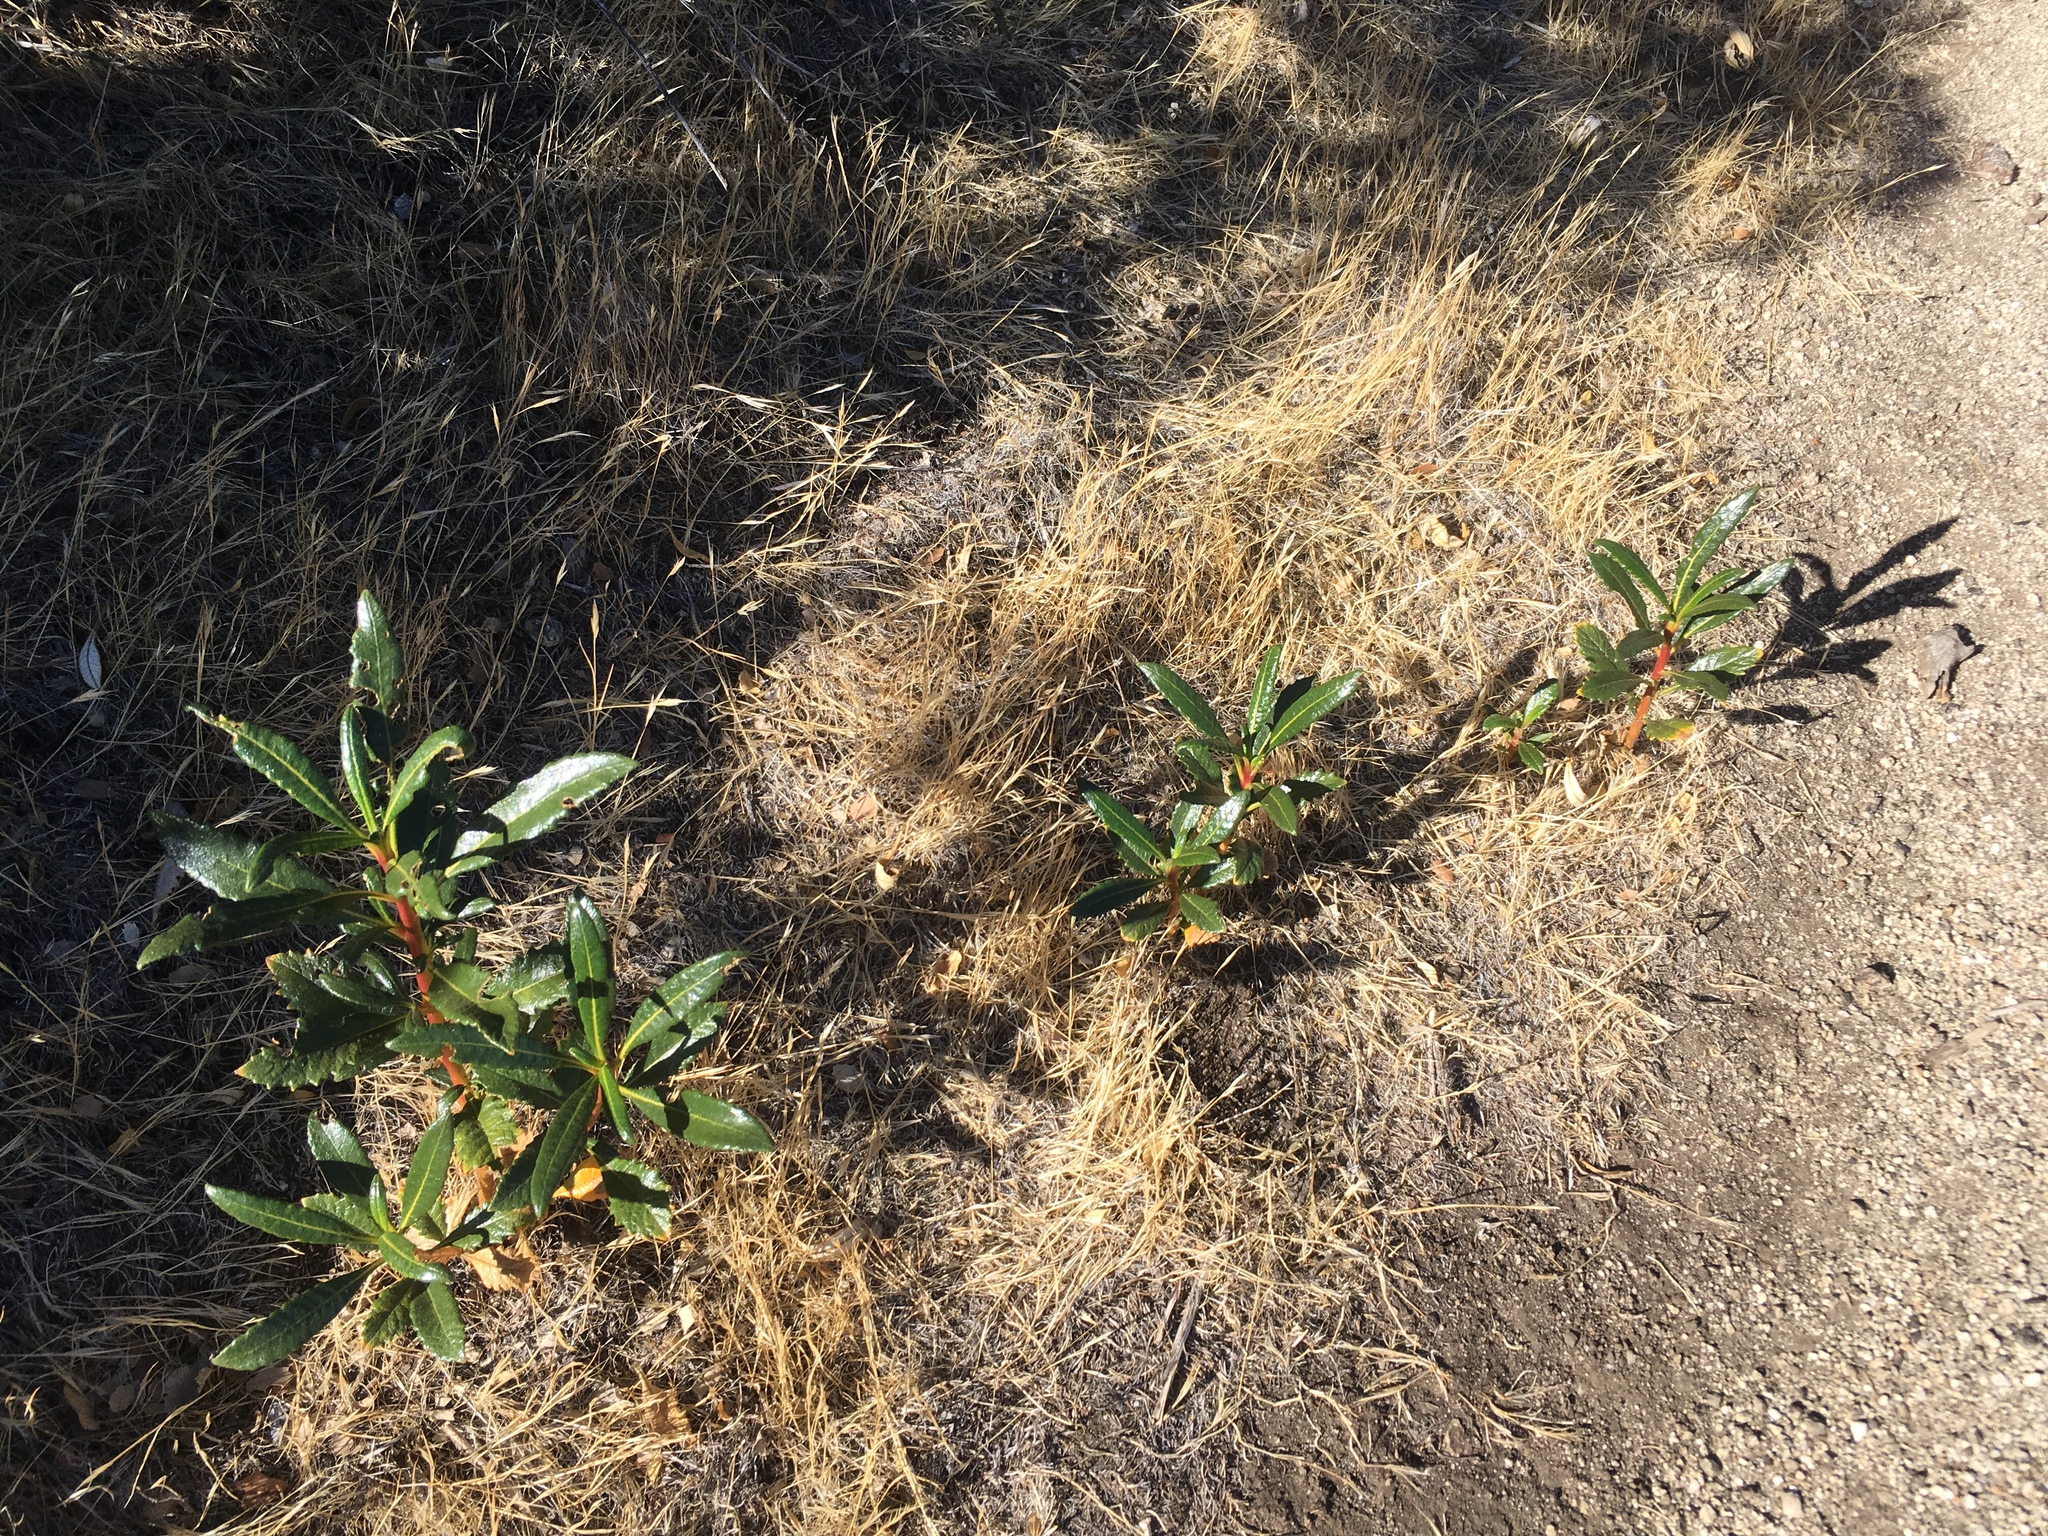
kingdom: Plantae
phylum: Tracheophyta
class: Magnoliopsida
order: Boraginales
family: Namaceae
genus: Eriodictyon
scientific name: Eriodictyon trichocalyx
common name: Hairy yerba-santa
